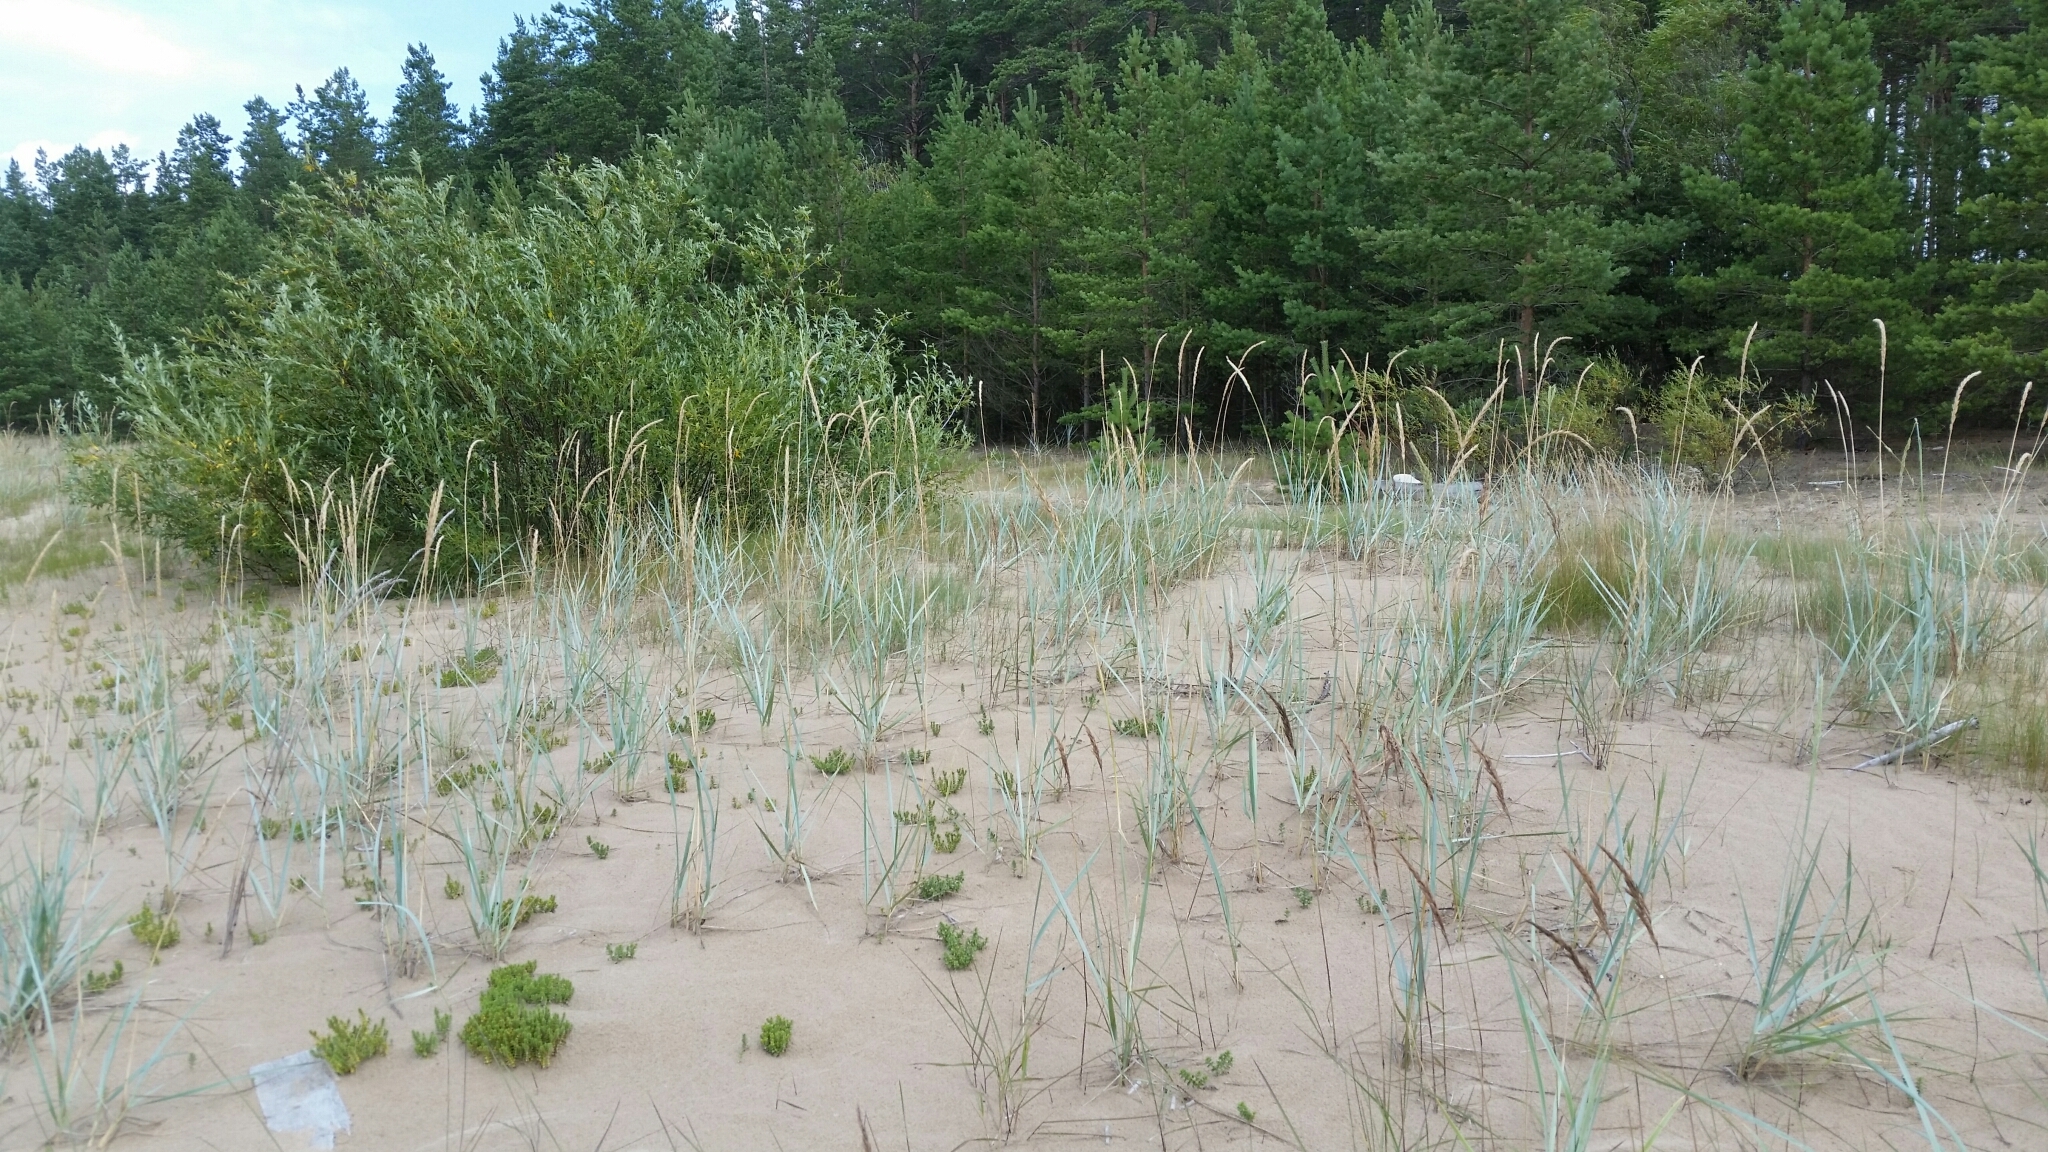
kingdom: Plantae
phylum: Tracheophyta
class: Liliopsida
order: Poales
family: Poaceae
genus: Leymus
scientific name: Leymus arenarius
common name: Lyme-grass
